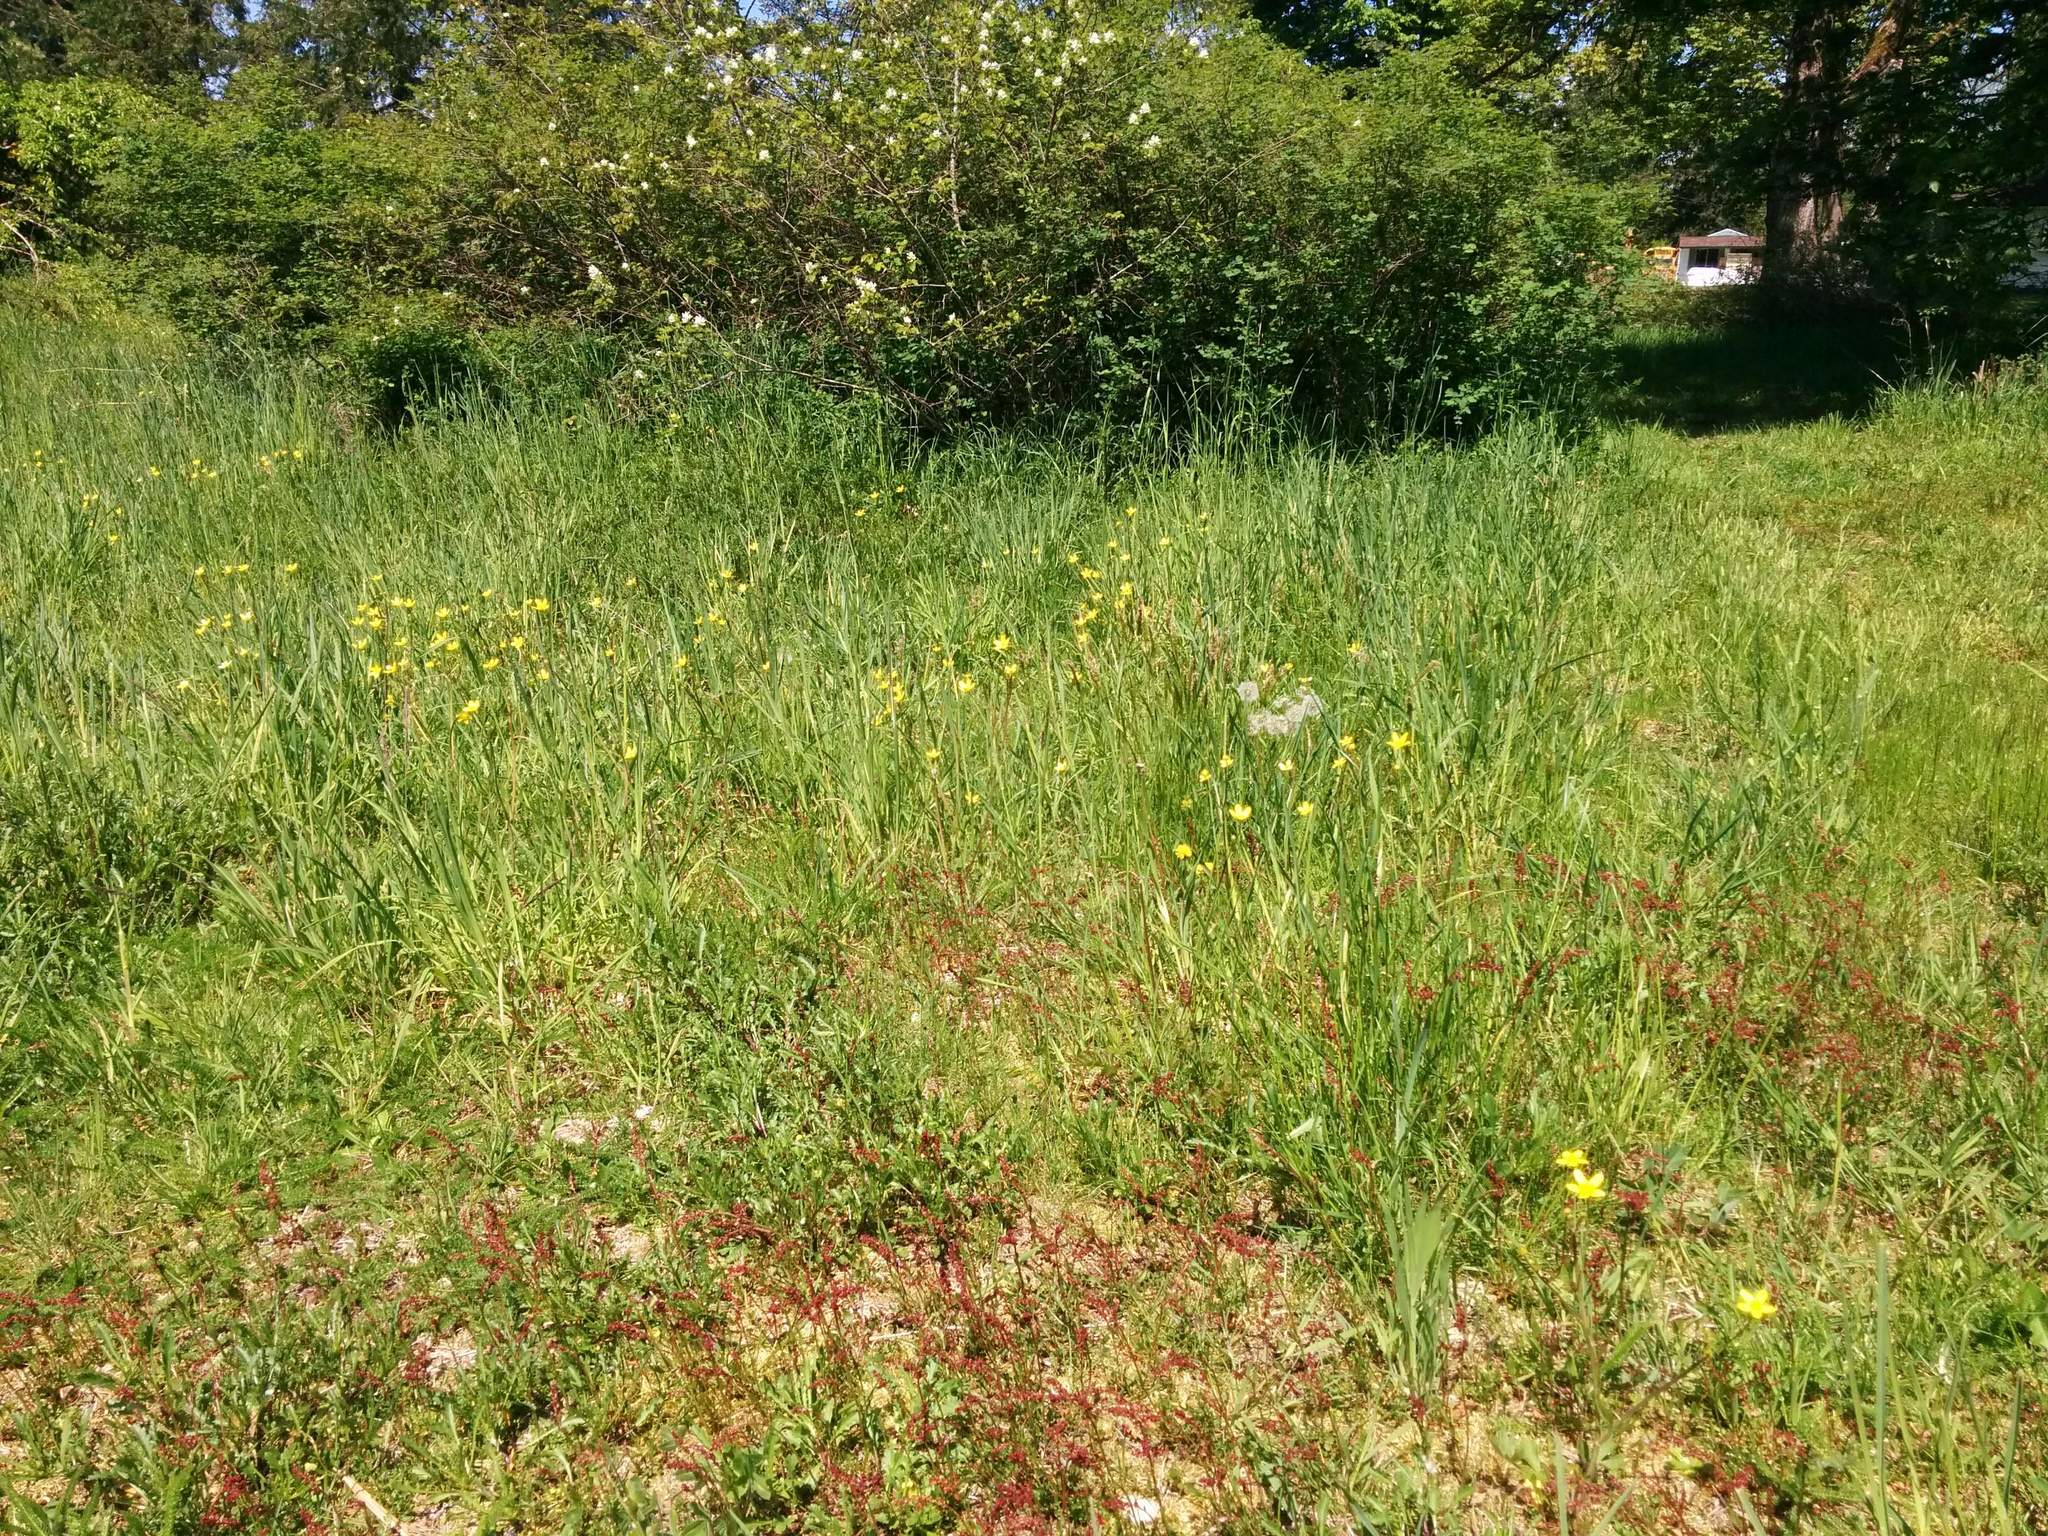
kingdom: Plantae
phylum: Tracheophyta
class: Magnoliopsida
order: Ranunculales
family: Ranunculaceae
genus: Ranunculus
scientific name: Ranunculus occidentalis
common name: Western buttercup
